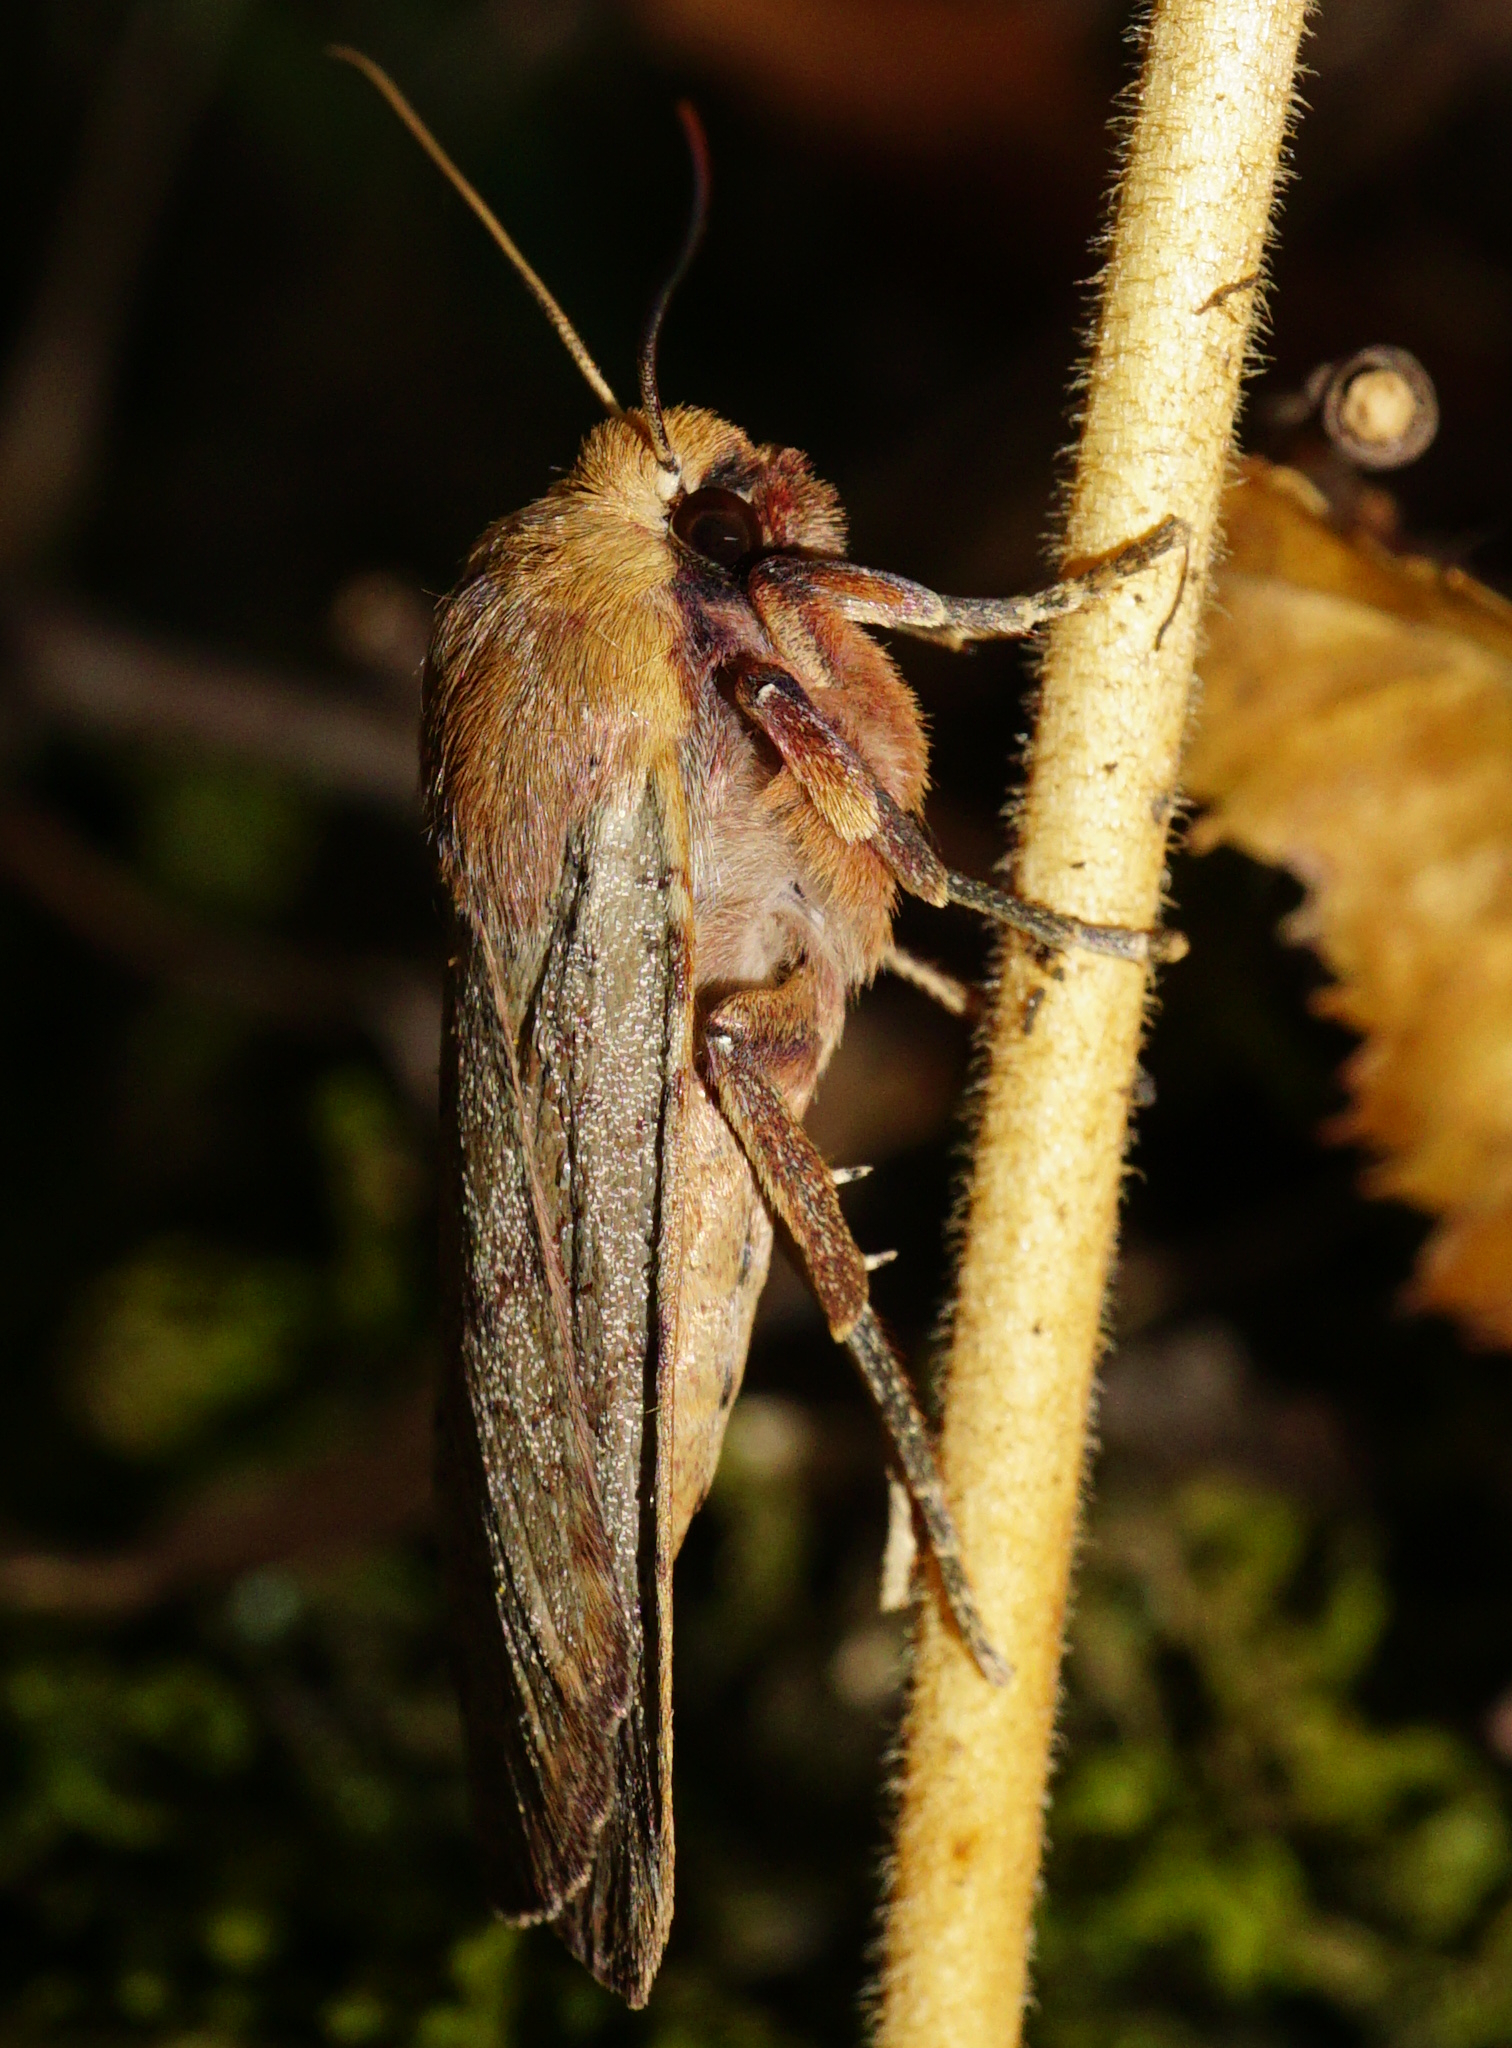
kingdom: Animalia
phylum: Arthropoda
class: Insecta
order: Lepidoptera
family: Noctuidae
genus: Conistra
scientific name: Conistra erythrocephala
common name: Red-headed chestnut
